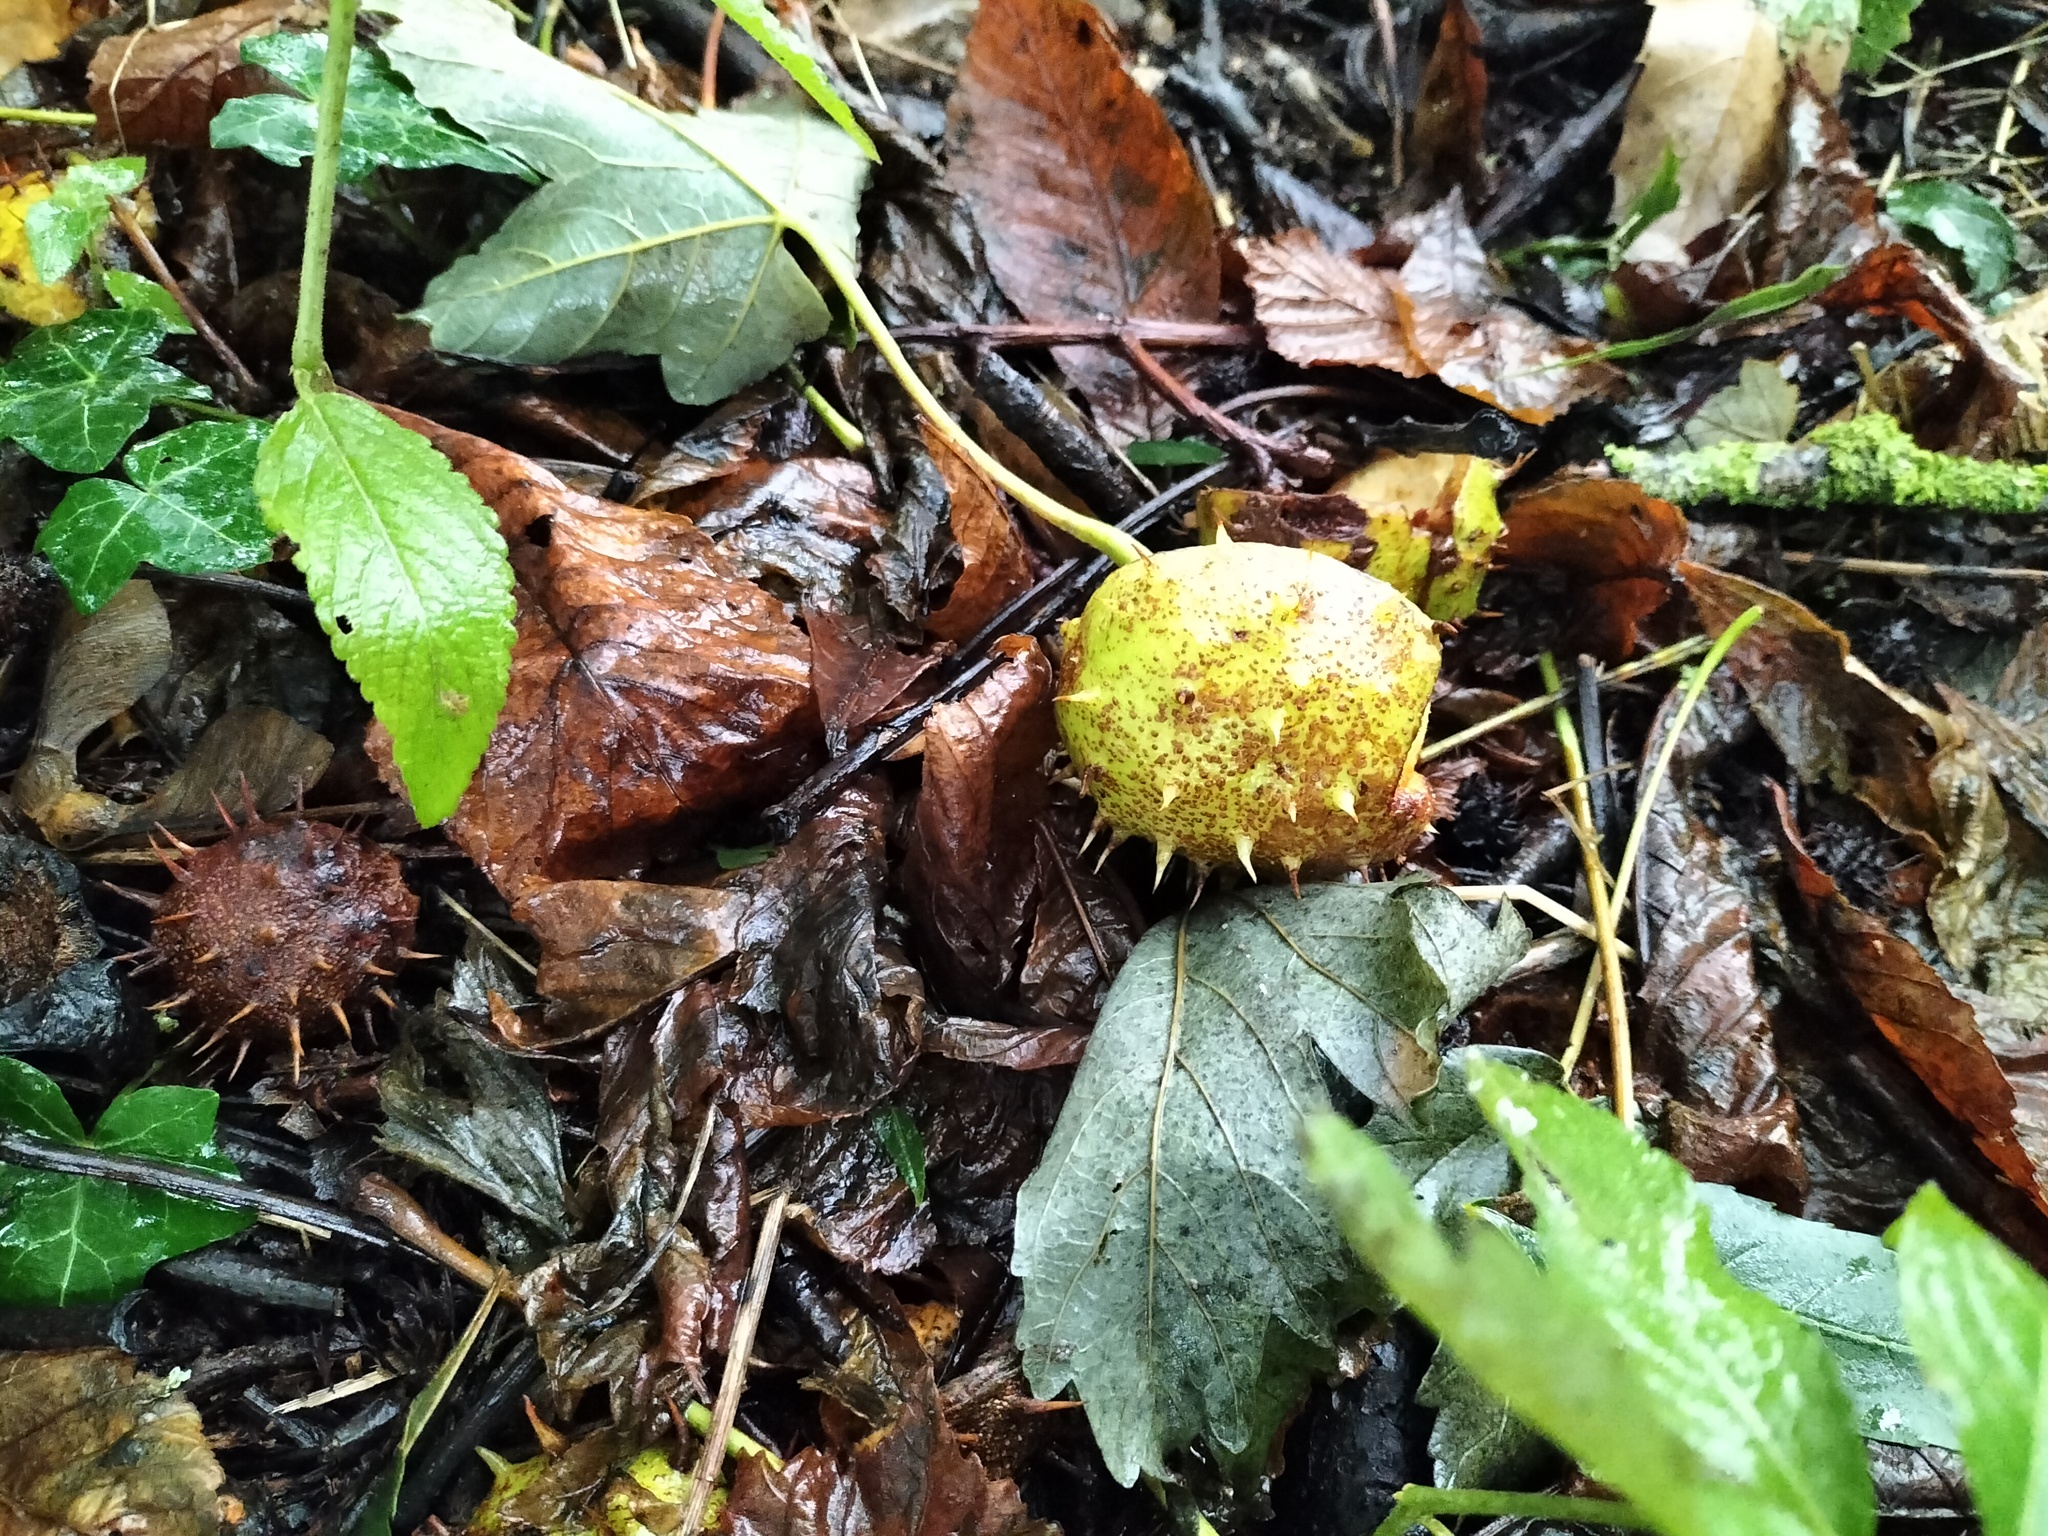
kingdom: Plantae
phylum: Tracheophyta
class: Magnoliopsida
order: Sapindales
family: Sapindaceae
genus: Aesculus
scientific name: Aesculus hippocastanum
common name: Horse-chestnut
